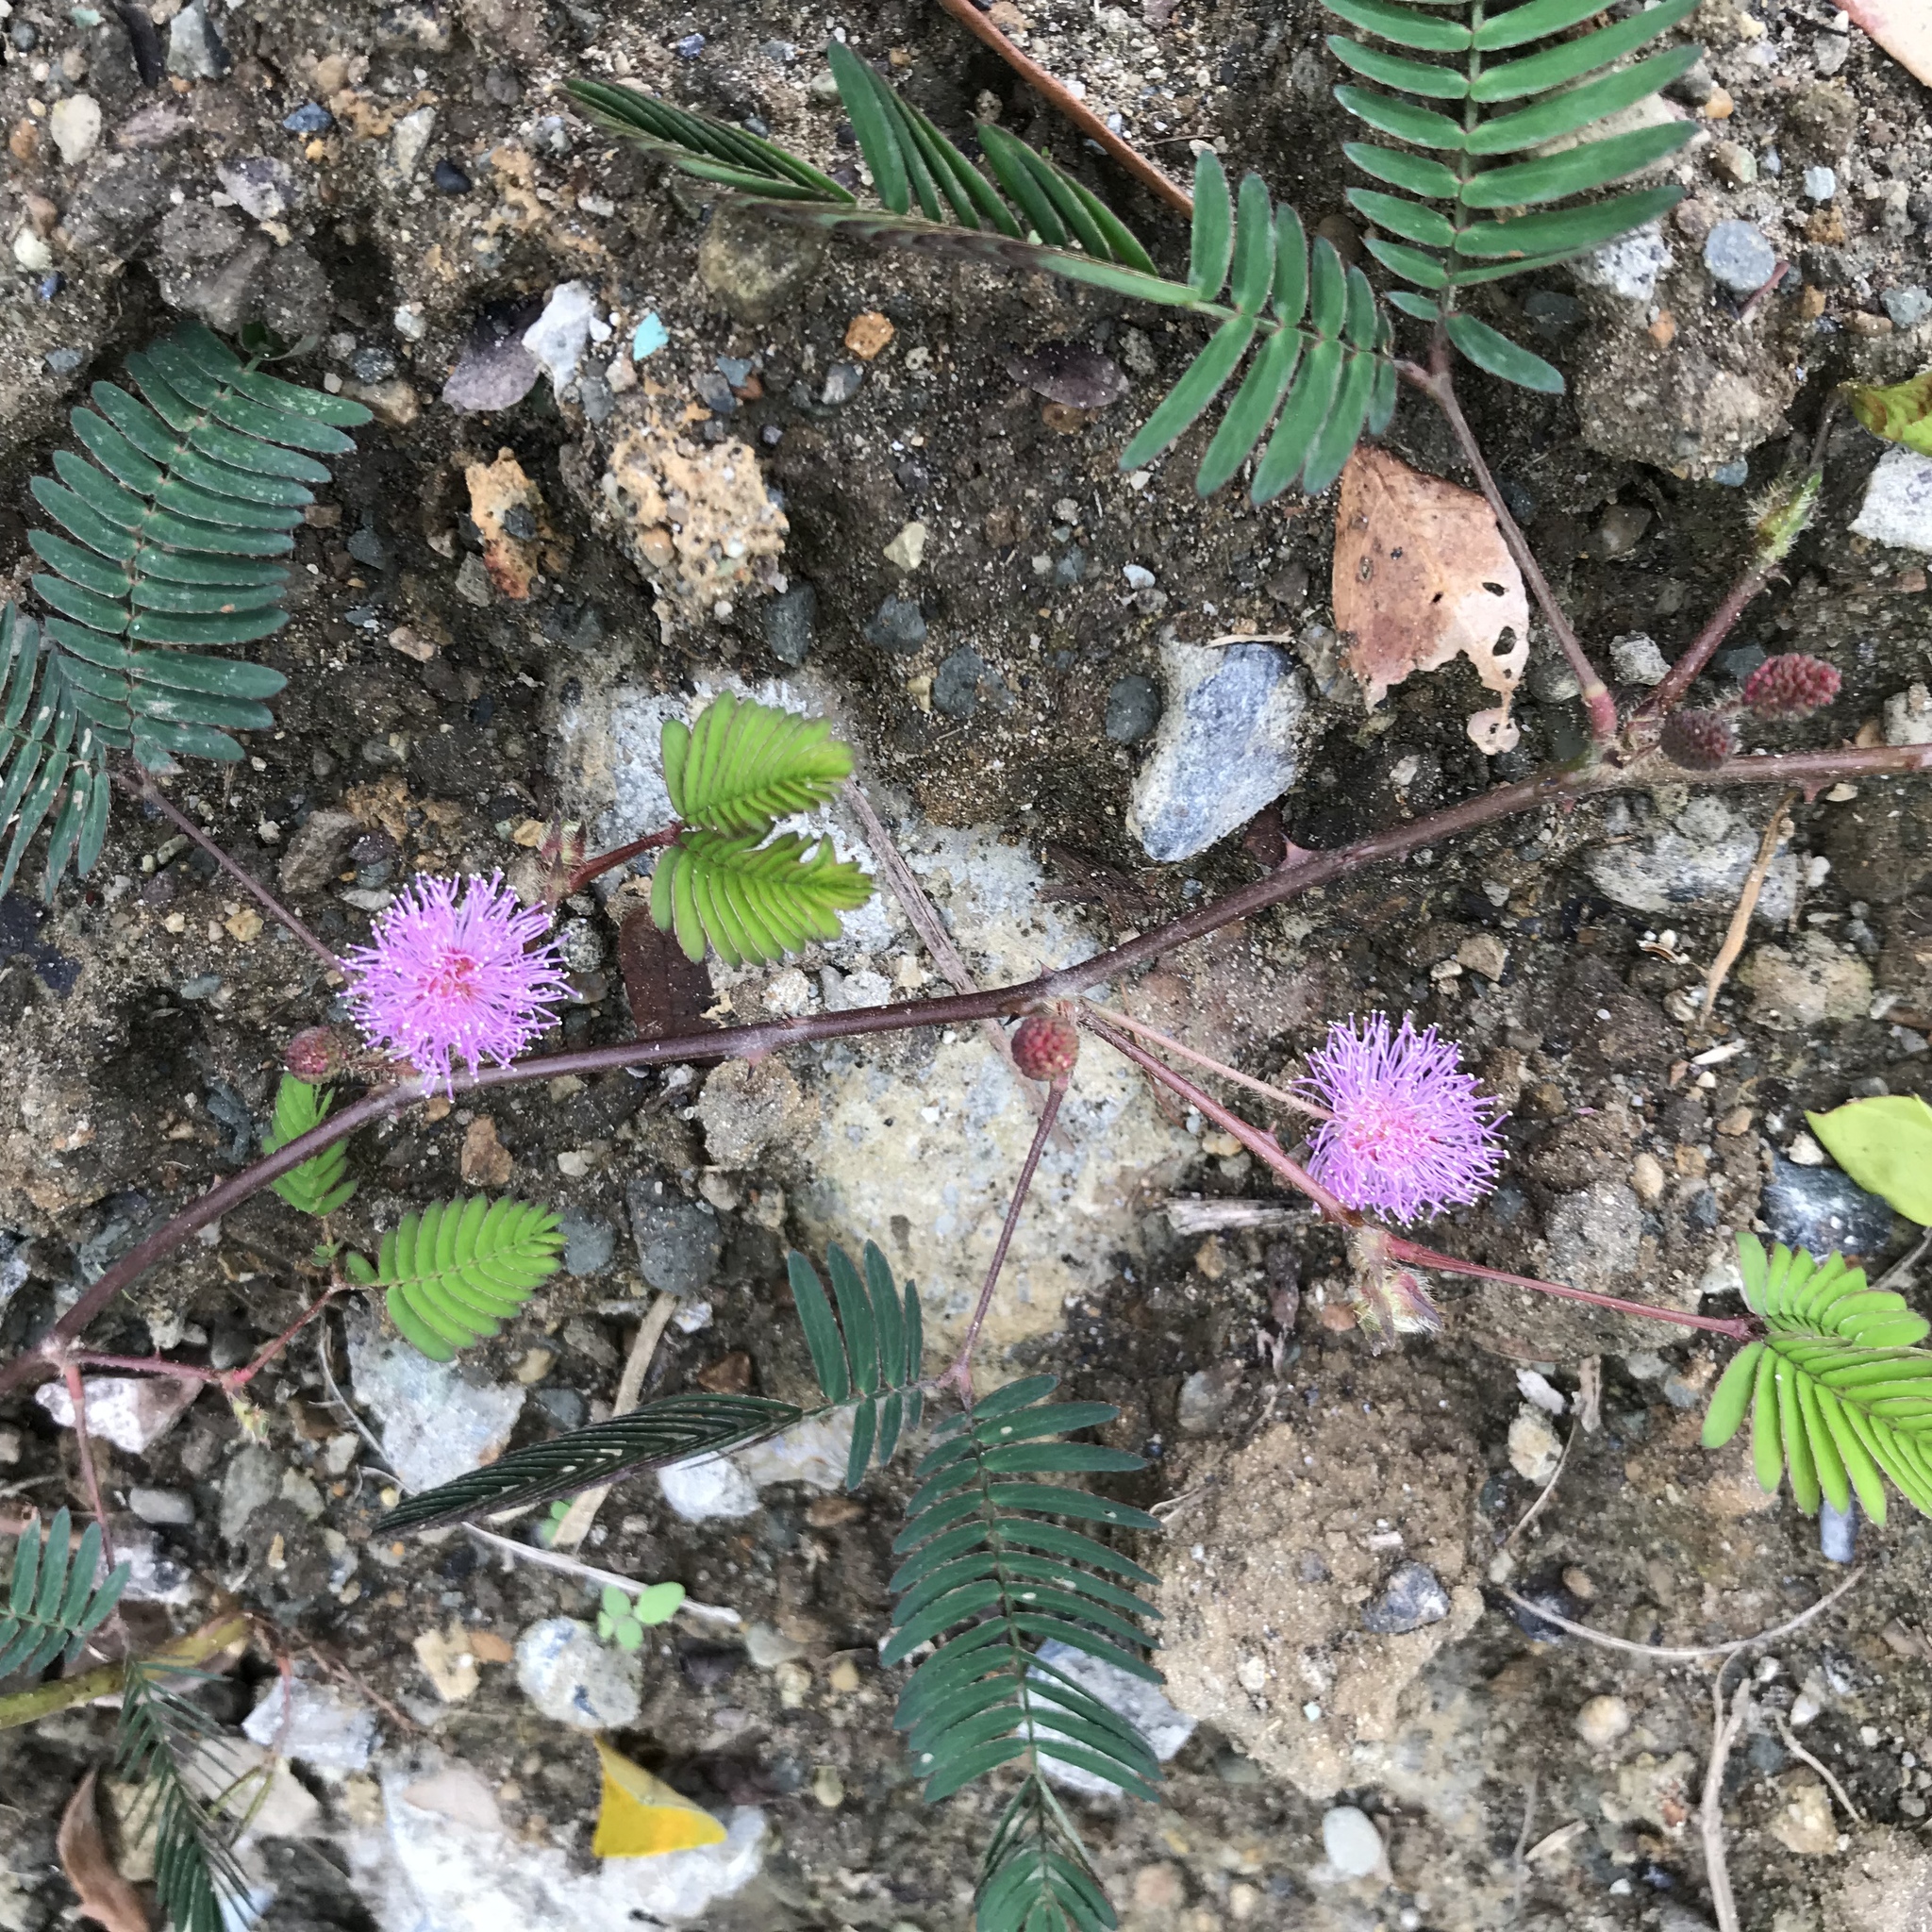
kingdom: Plantae
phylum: Tracheophyta
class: Magnoliopsida
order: Fabales
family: Fabaceae
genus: Mimosa
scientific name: Mimosa pudica
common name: Sensitive plant
